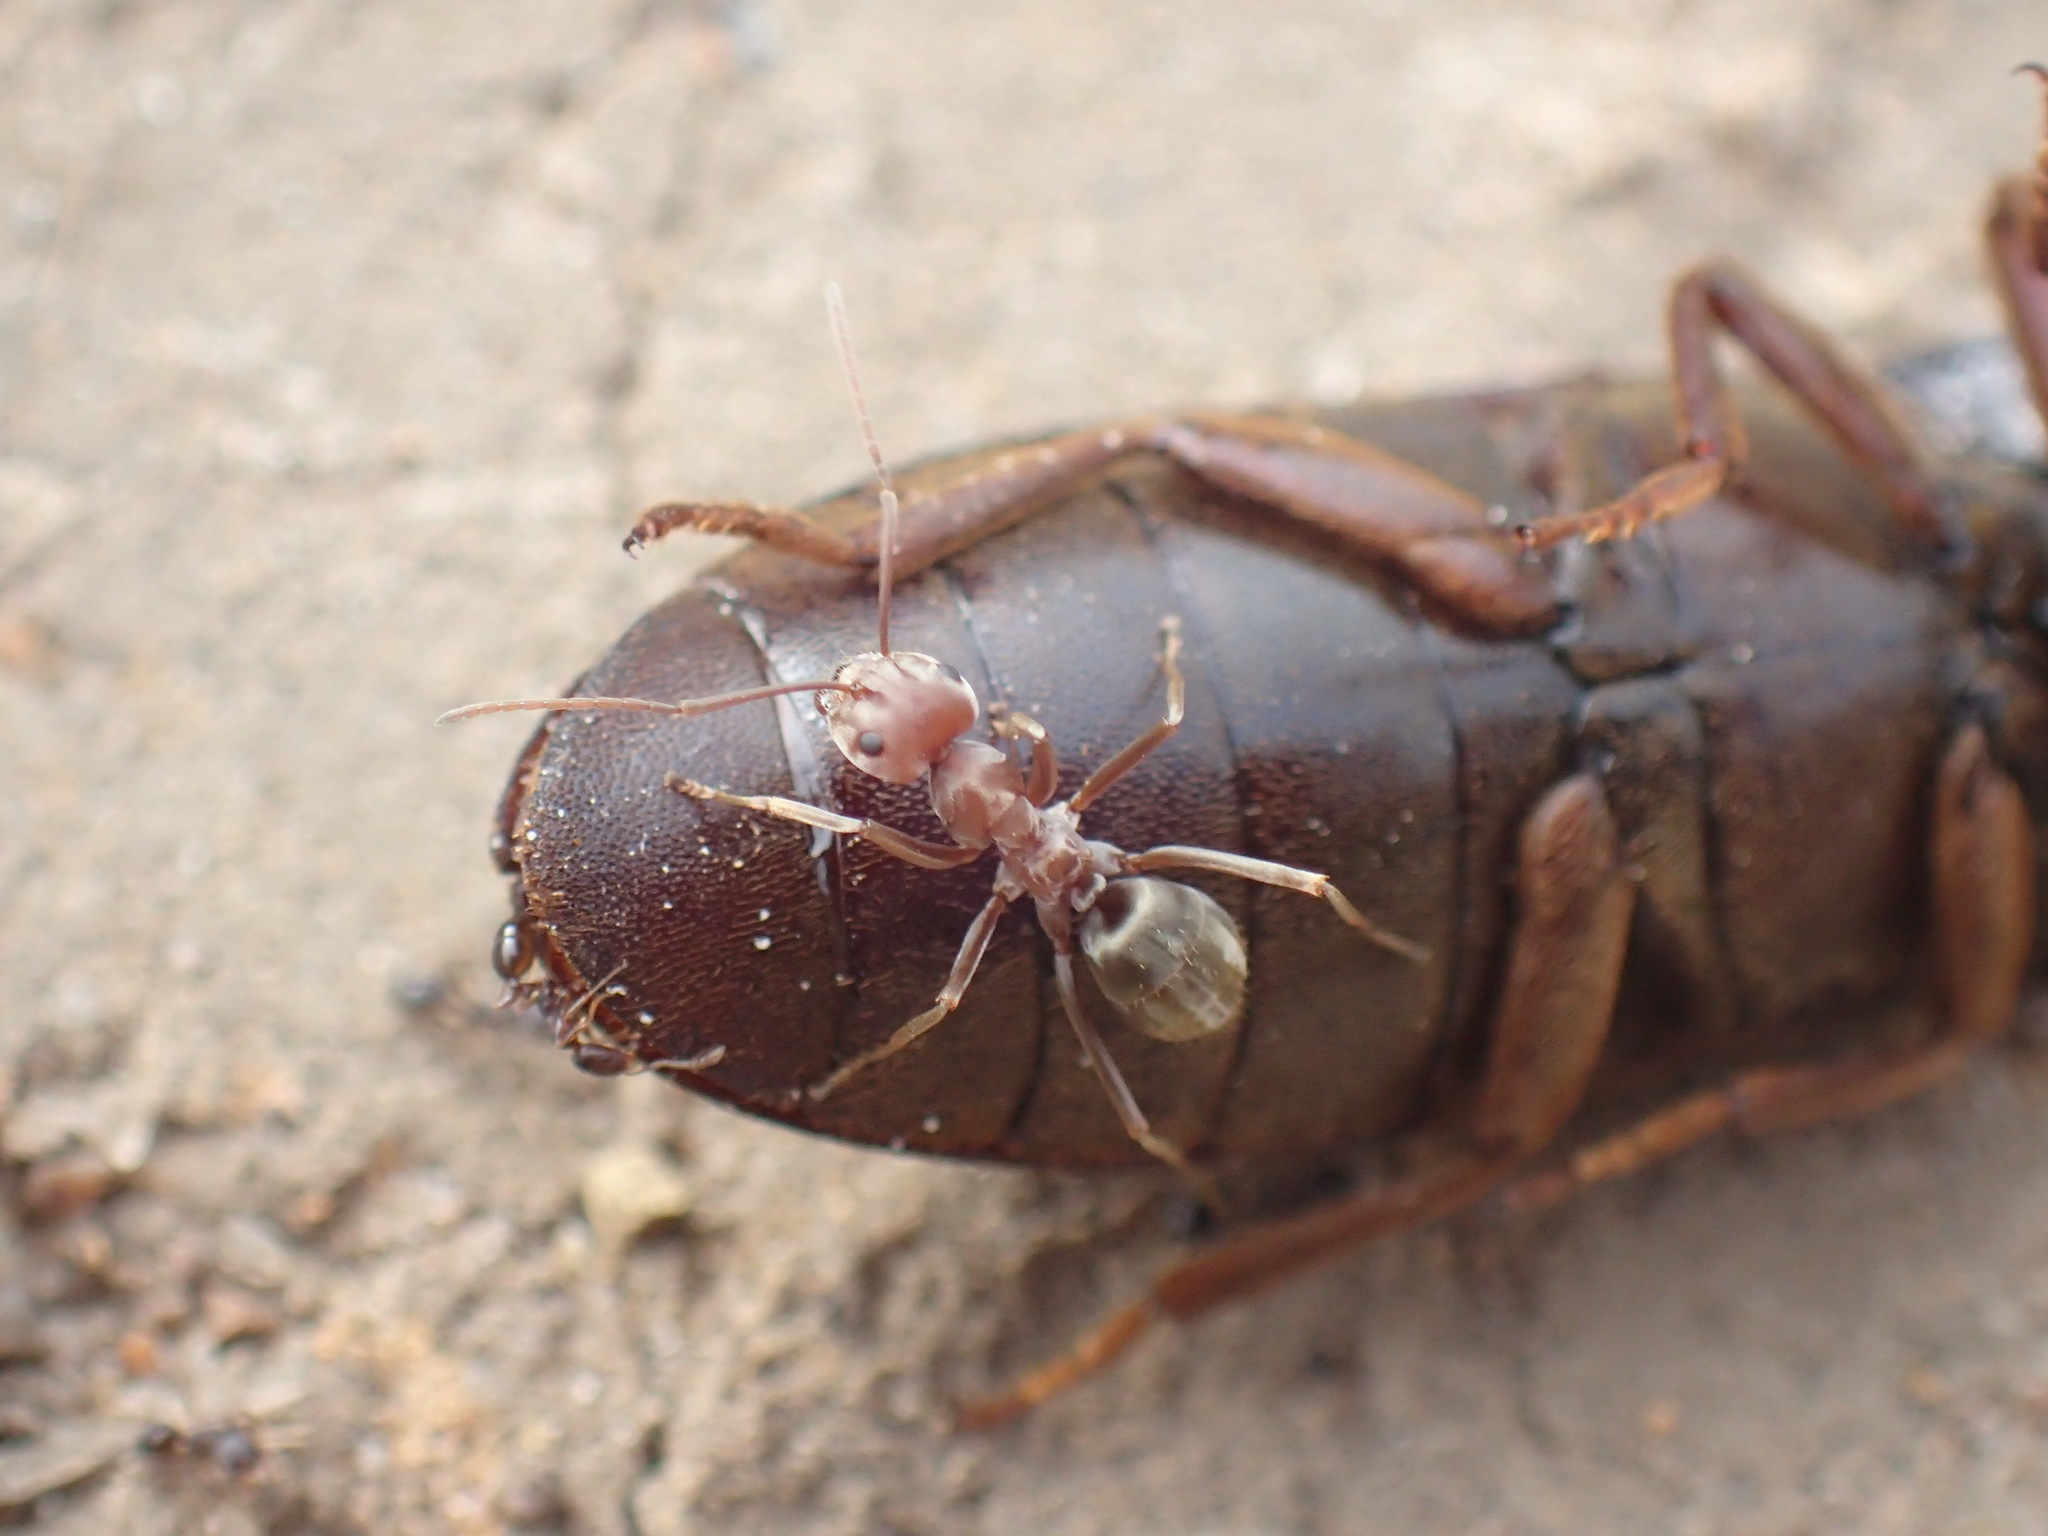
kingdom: Animalia
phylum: Arthropoda
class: Insecta
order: Hymenoptera
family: Formicidae
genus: Anoplolepis
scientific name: Anoplolepis custodiens
